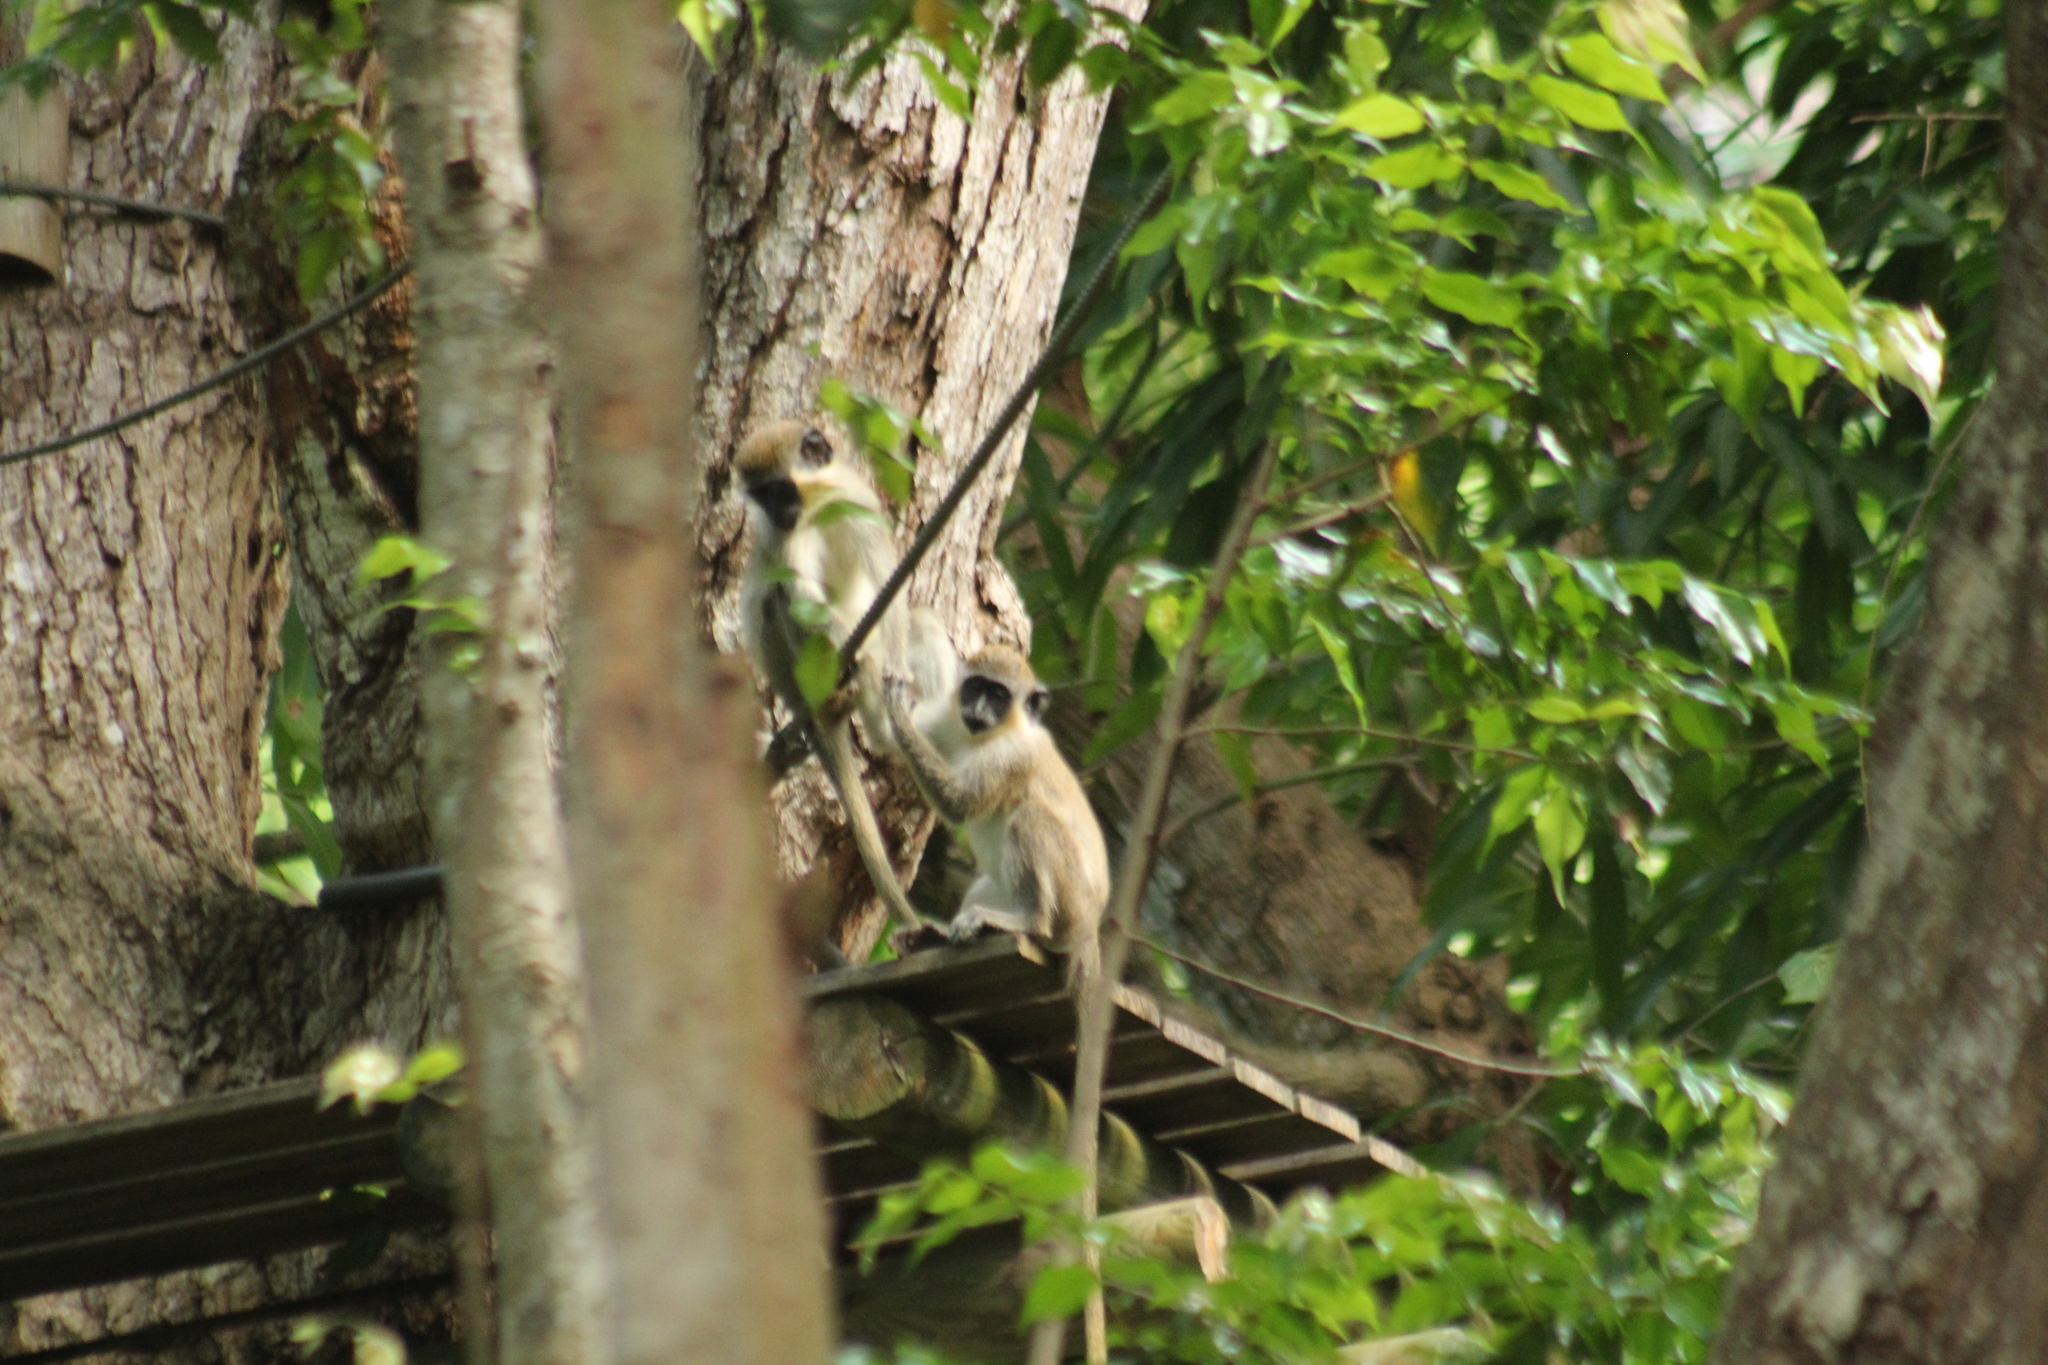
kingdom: Animalia
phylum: Chordata
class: Mammalia
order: Primates
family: Cercopithecidae
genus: Chlorocebus
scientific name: Chlorocebus sabaeus
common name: Green monkey
